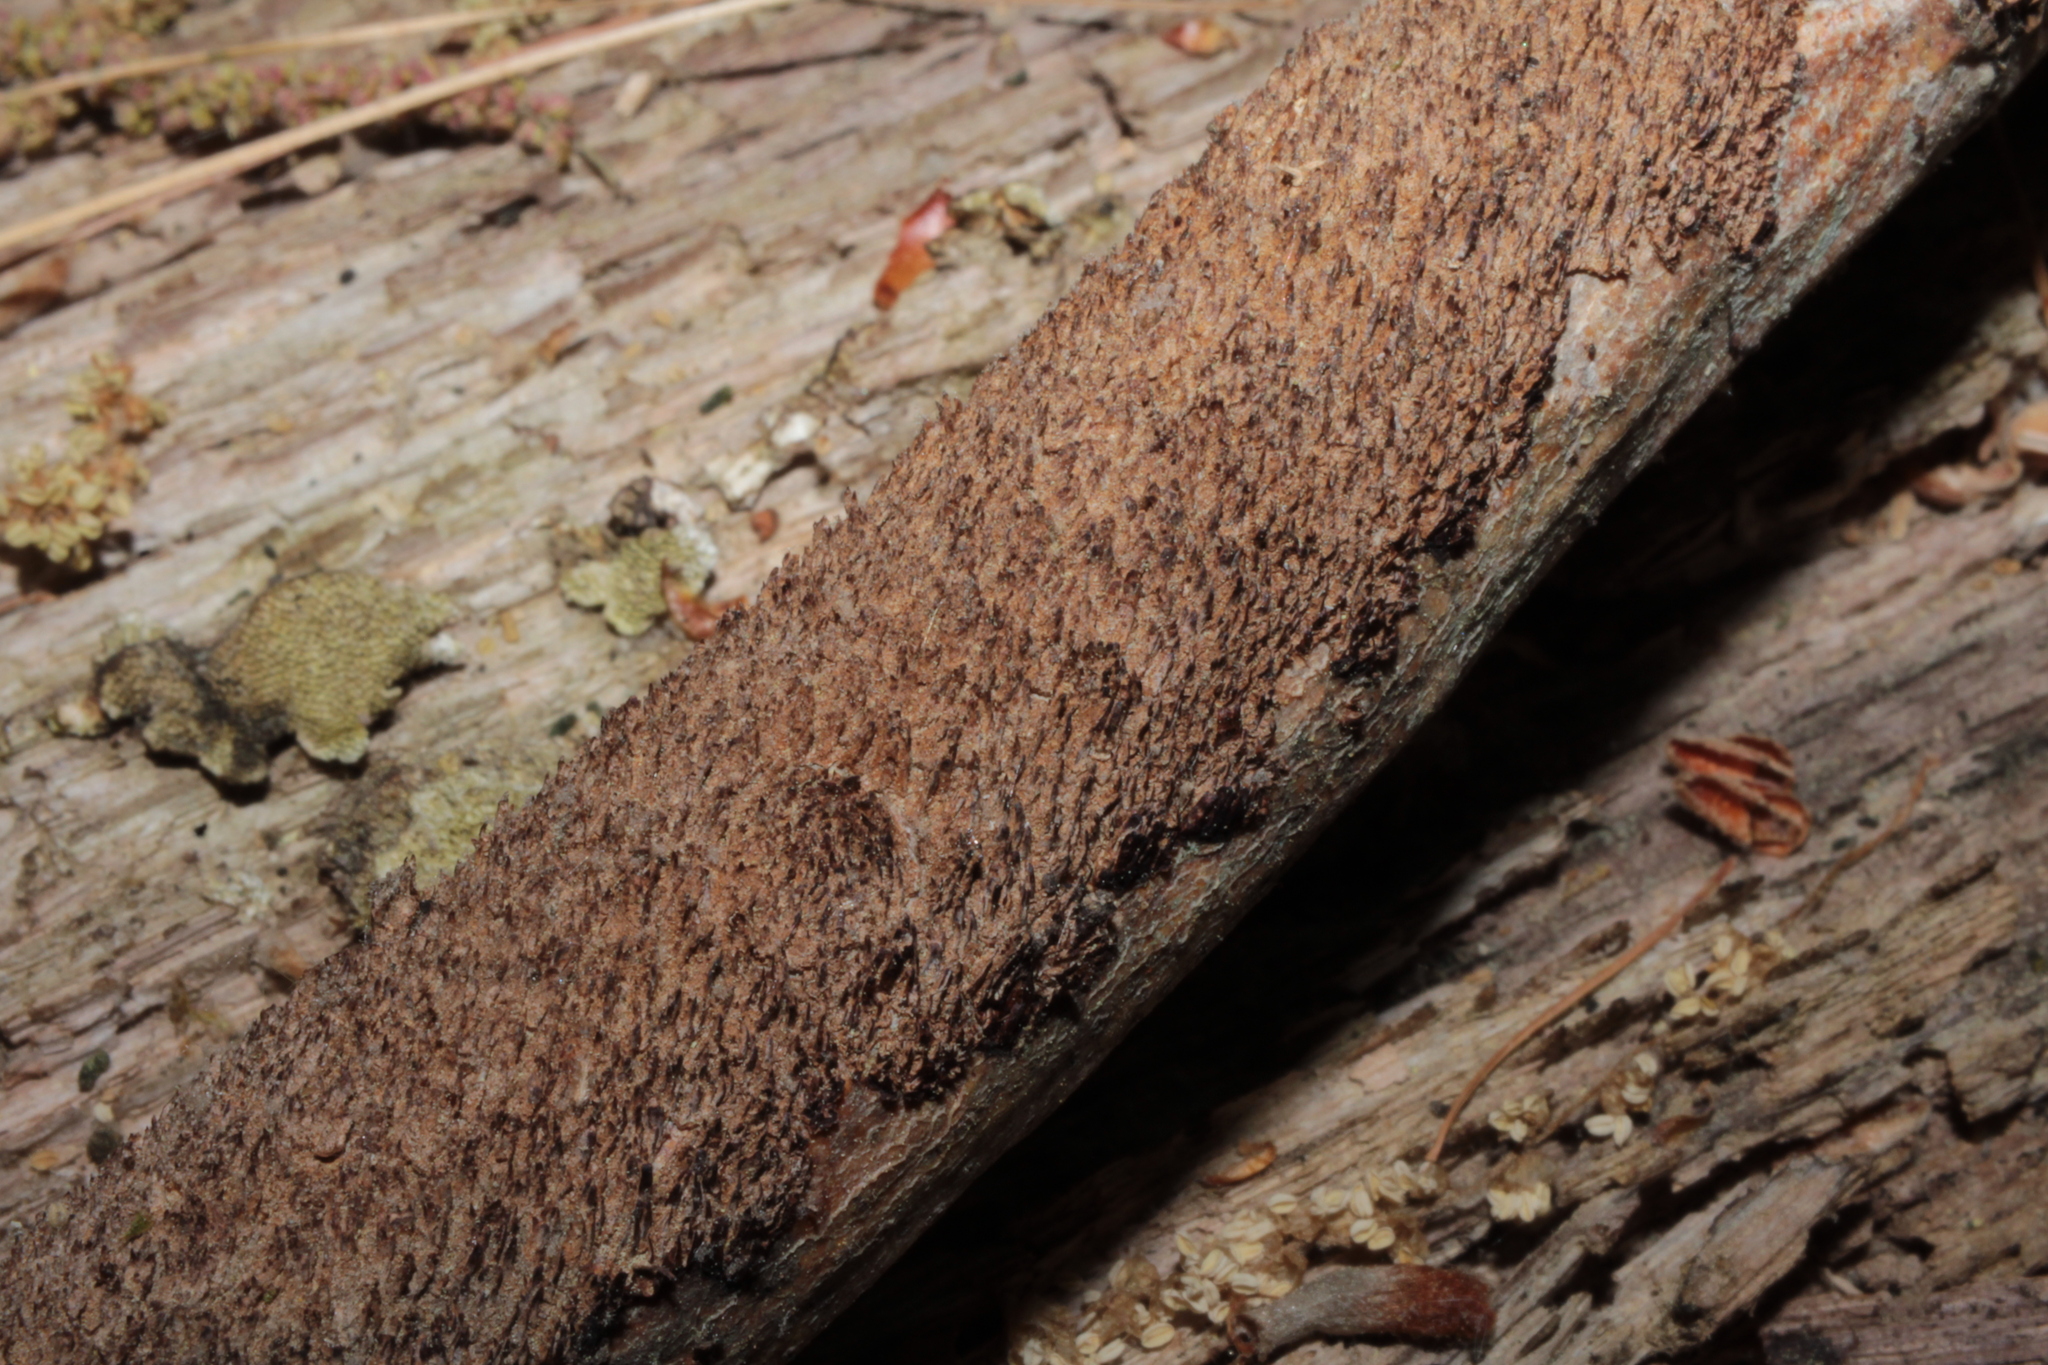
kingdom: Fungi
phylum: Basidiomycota
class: Agaricomycetes
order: Hymenochaetales
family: Hymenochaetaceae
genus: Hydnoporia
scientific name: Hydnoporia olivacea
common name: Brown-toothed crust fungus
